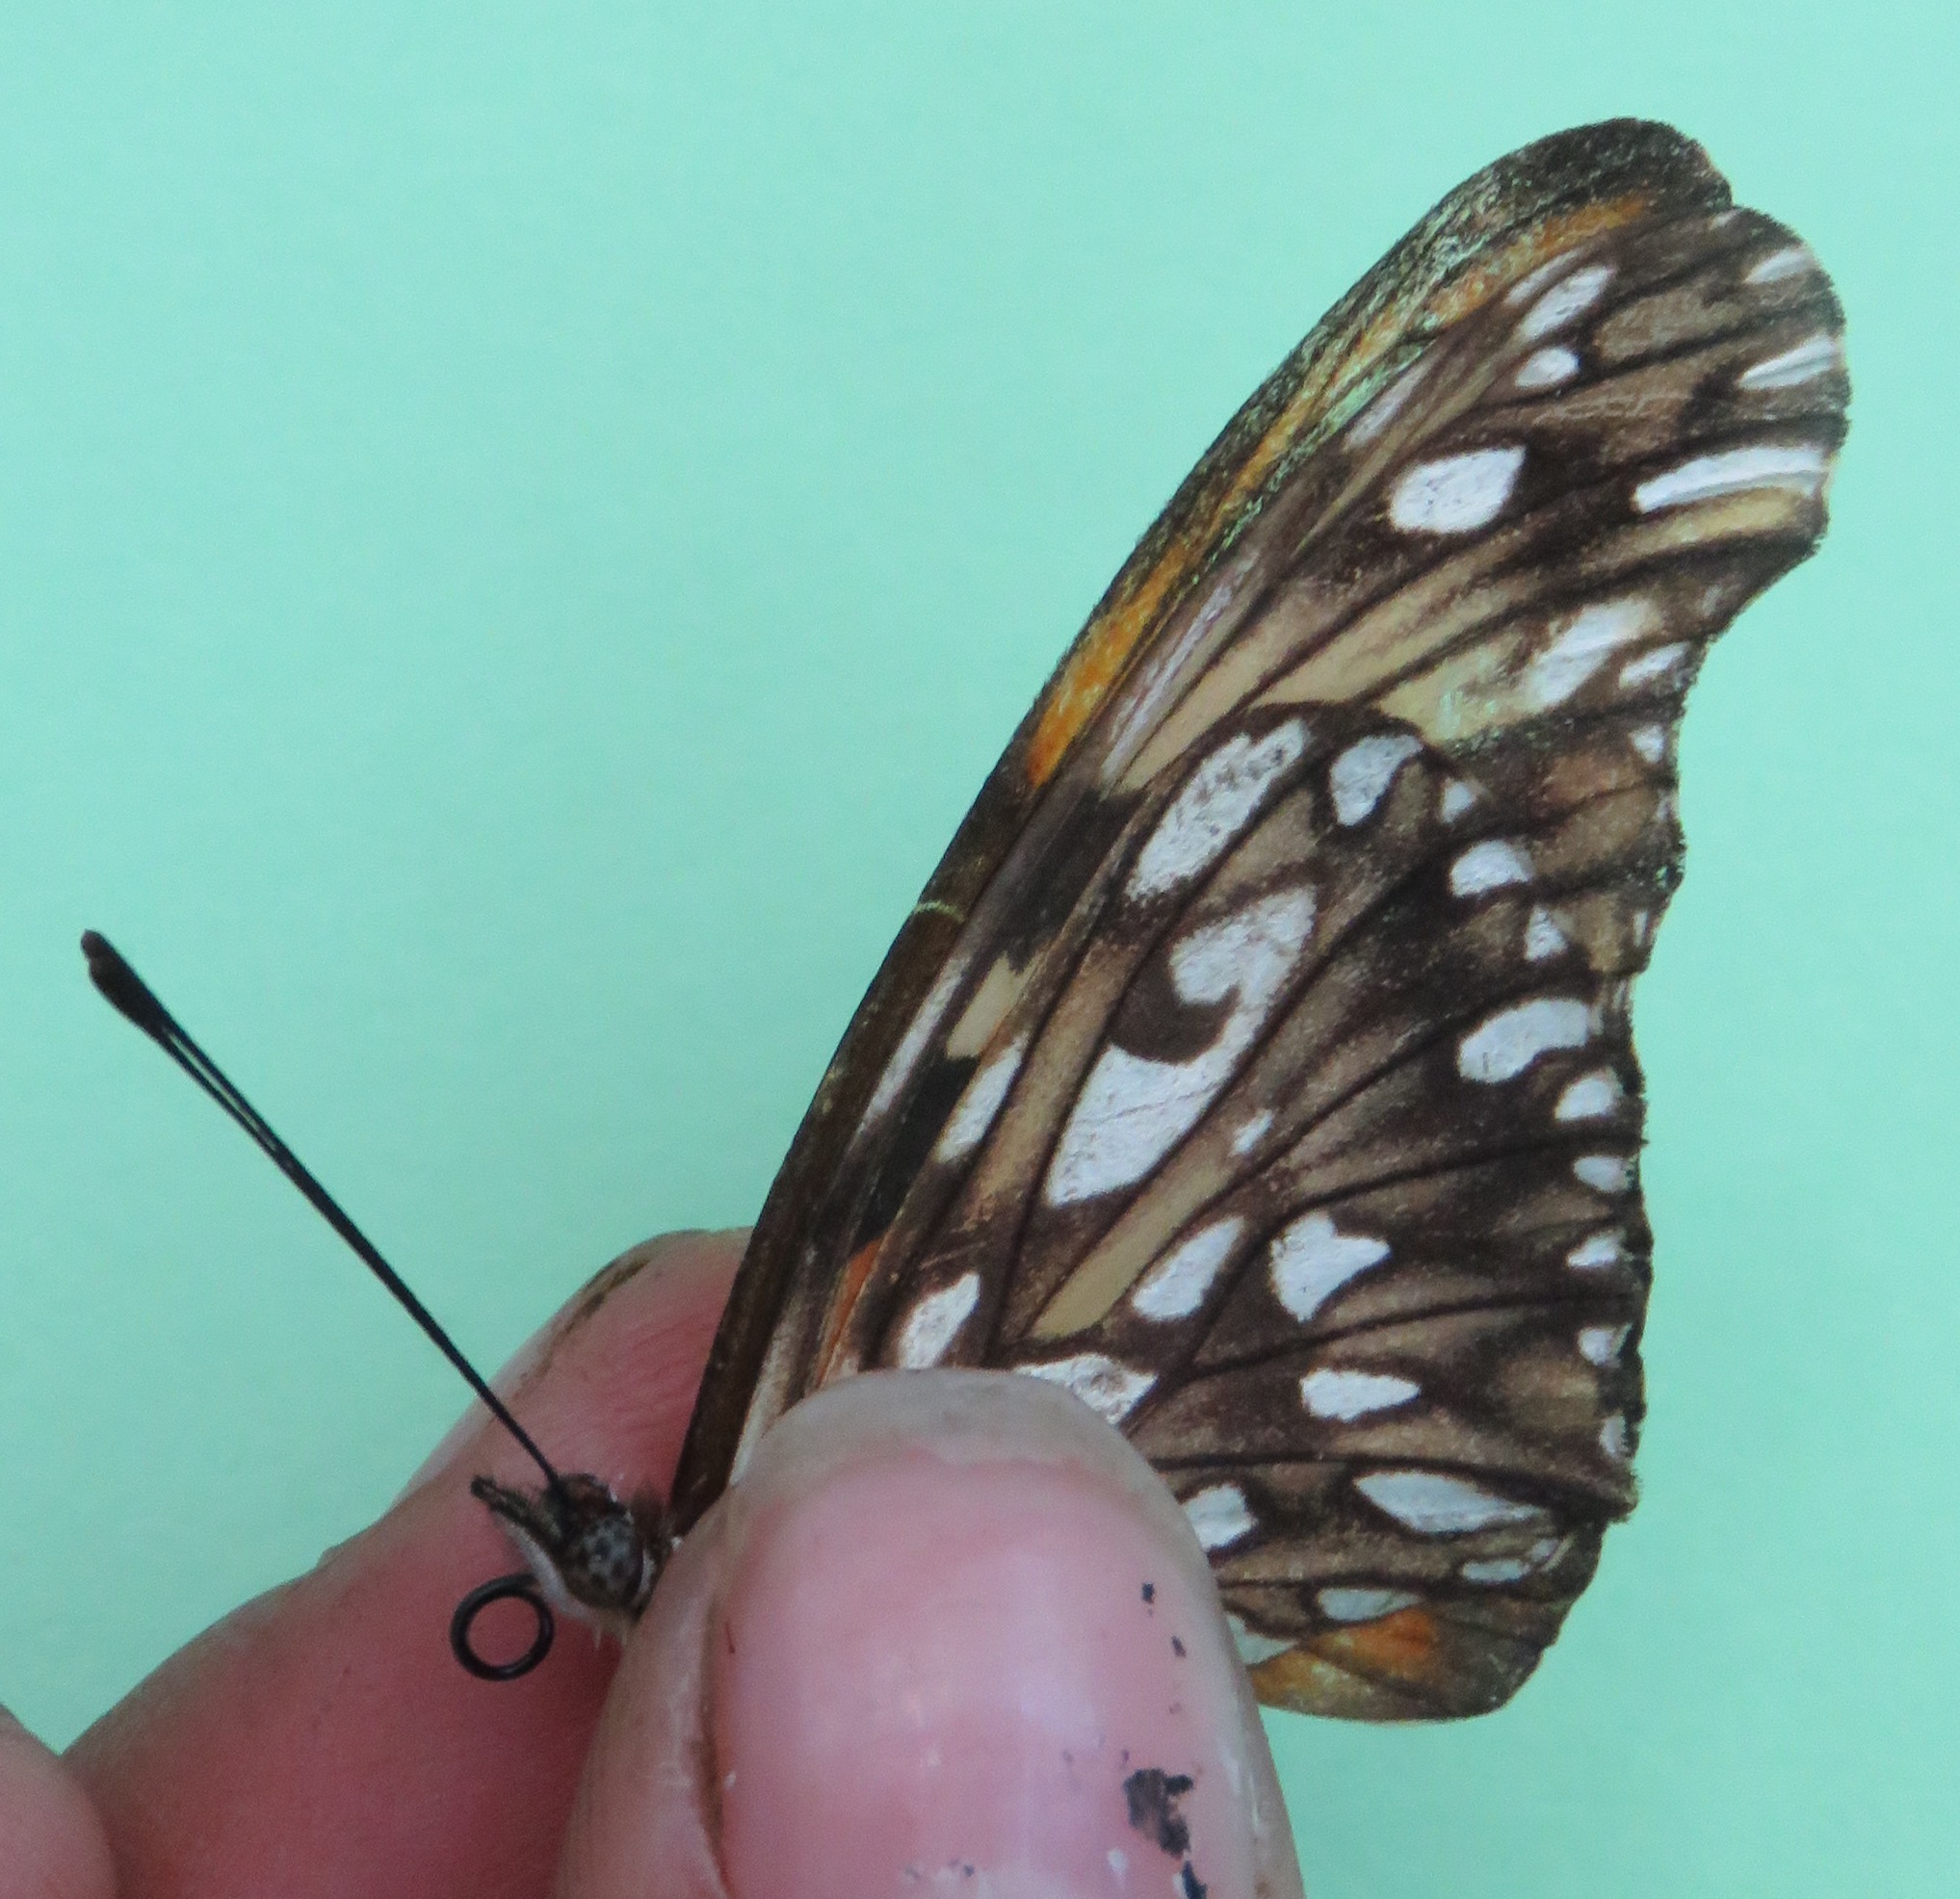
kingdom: Animalia
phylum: Arthropoda
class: Insecta
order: Lepidoptera
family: Nymphalidae
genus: Dione
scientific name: Dione juno
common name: Juno silverspot
